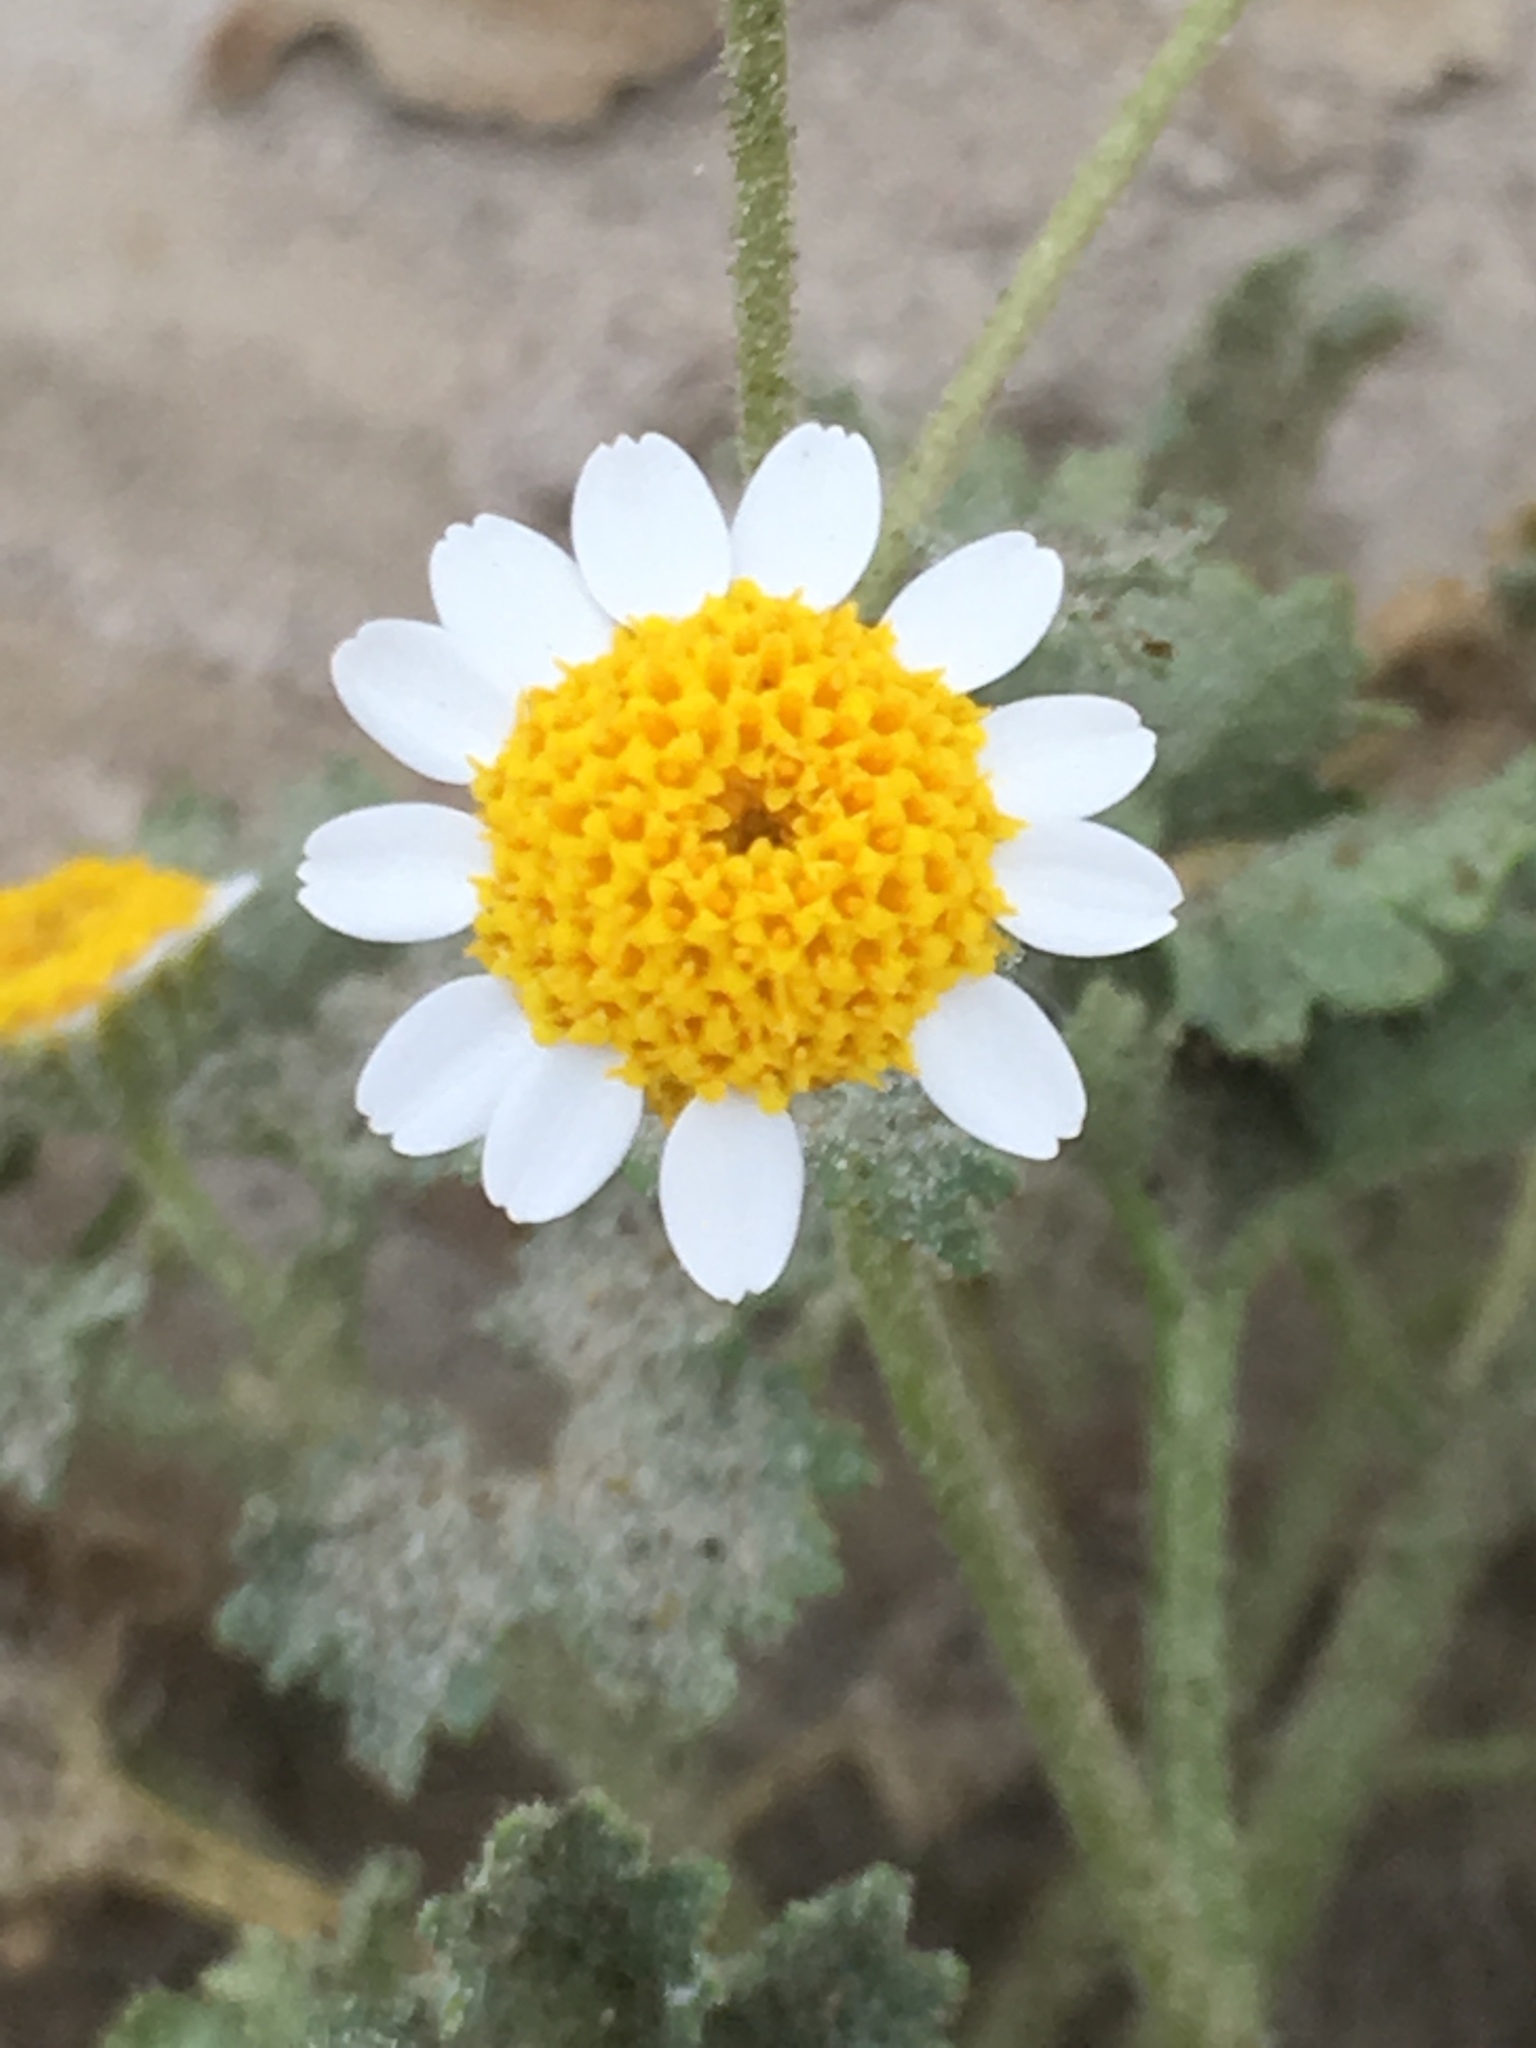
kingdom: Plantae
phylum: Tracheophyta
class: Magnoliopsida
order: Asterales
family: Asteraceae
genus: Laphamia
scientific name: Laphamia emoryi
